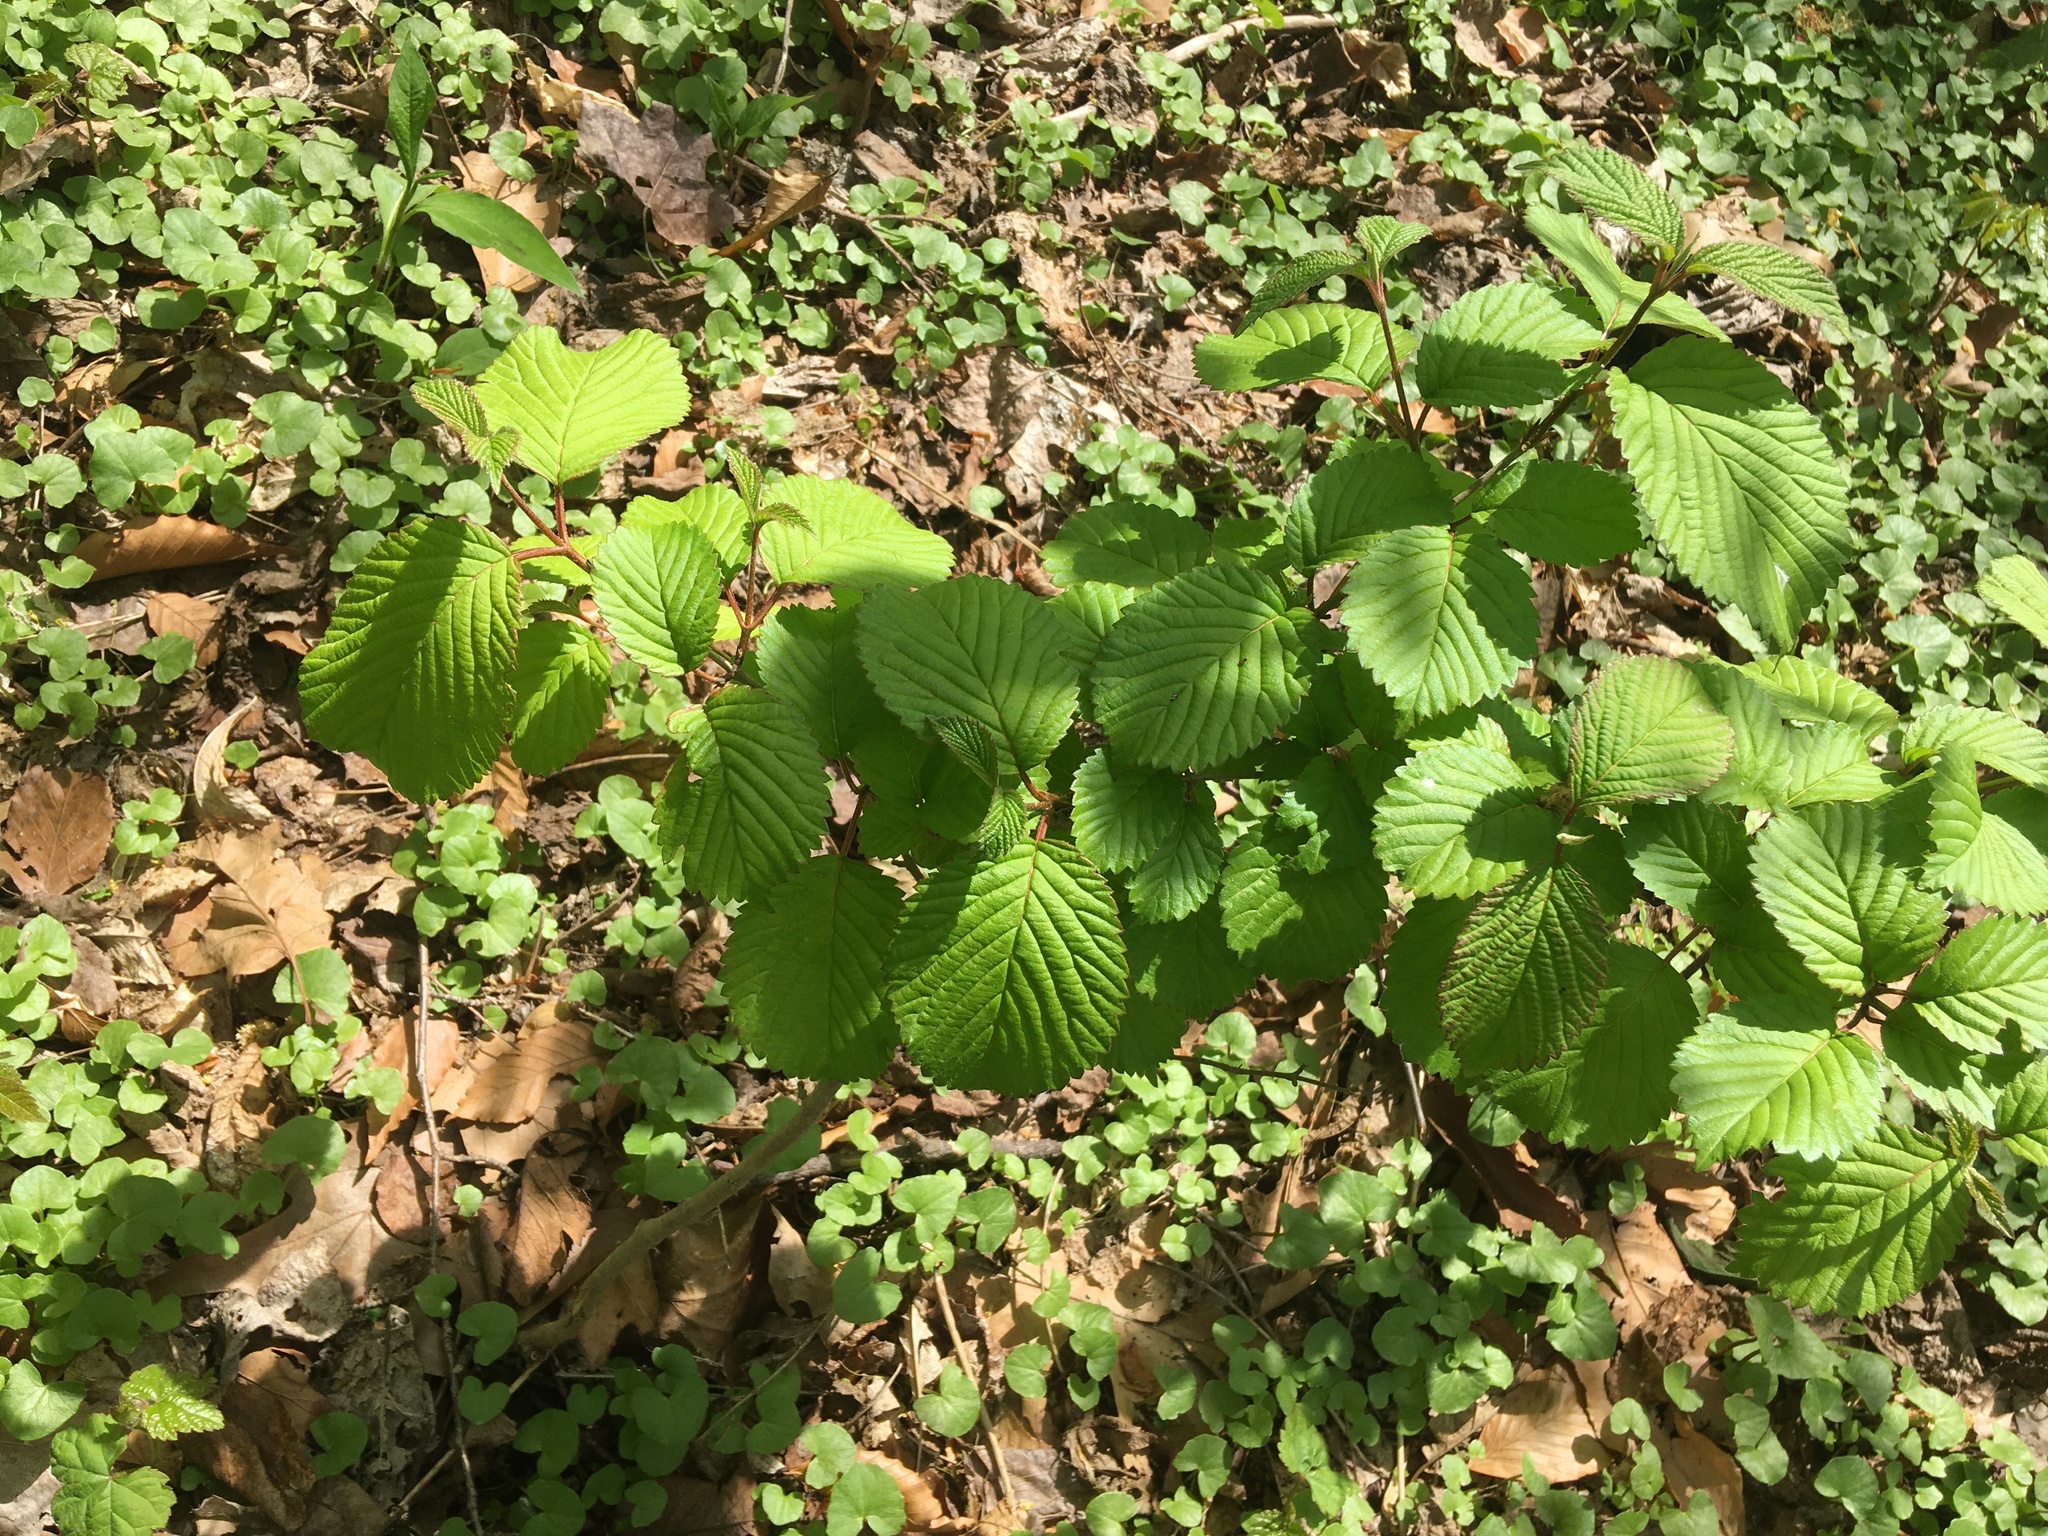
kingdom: Plantae
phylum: Tracheophyta
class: Magnoliopsida
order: Dipsacales
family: Viburnaceae
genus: Viburnum
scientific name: Viburnum plicatum
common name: Japanese snowball
